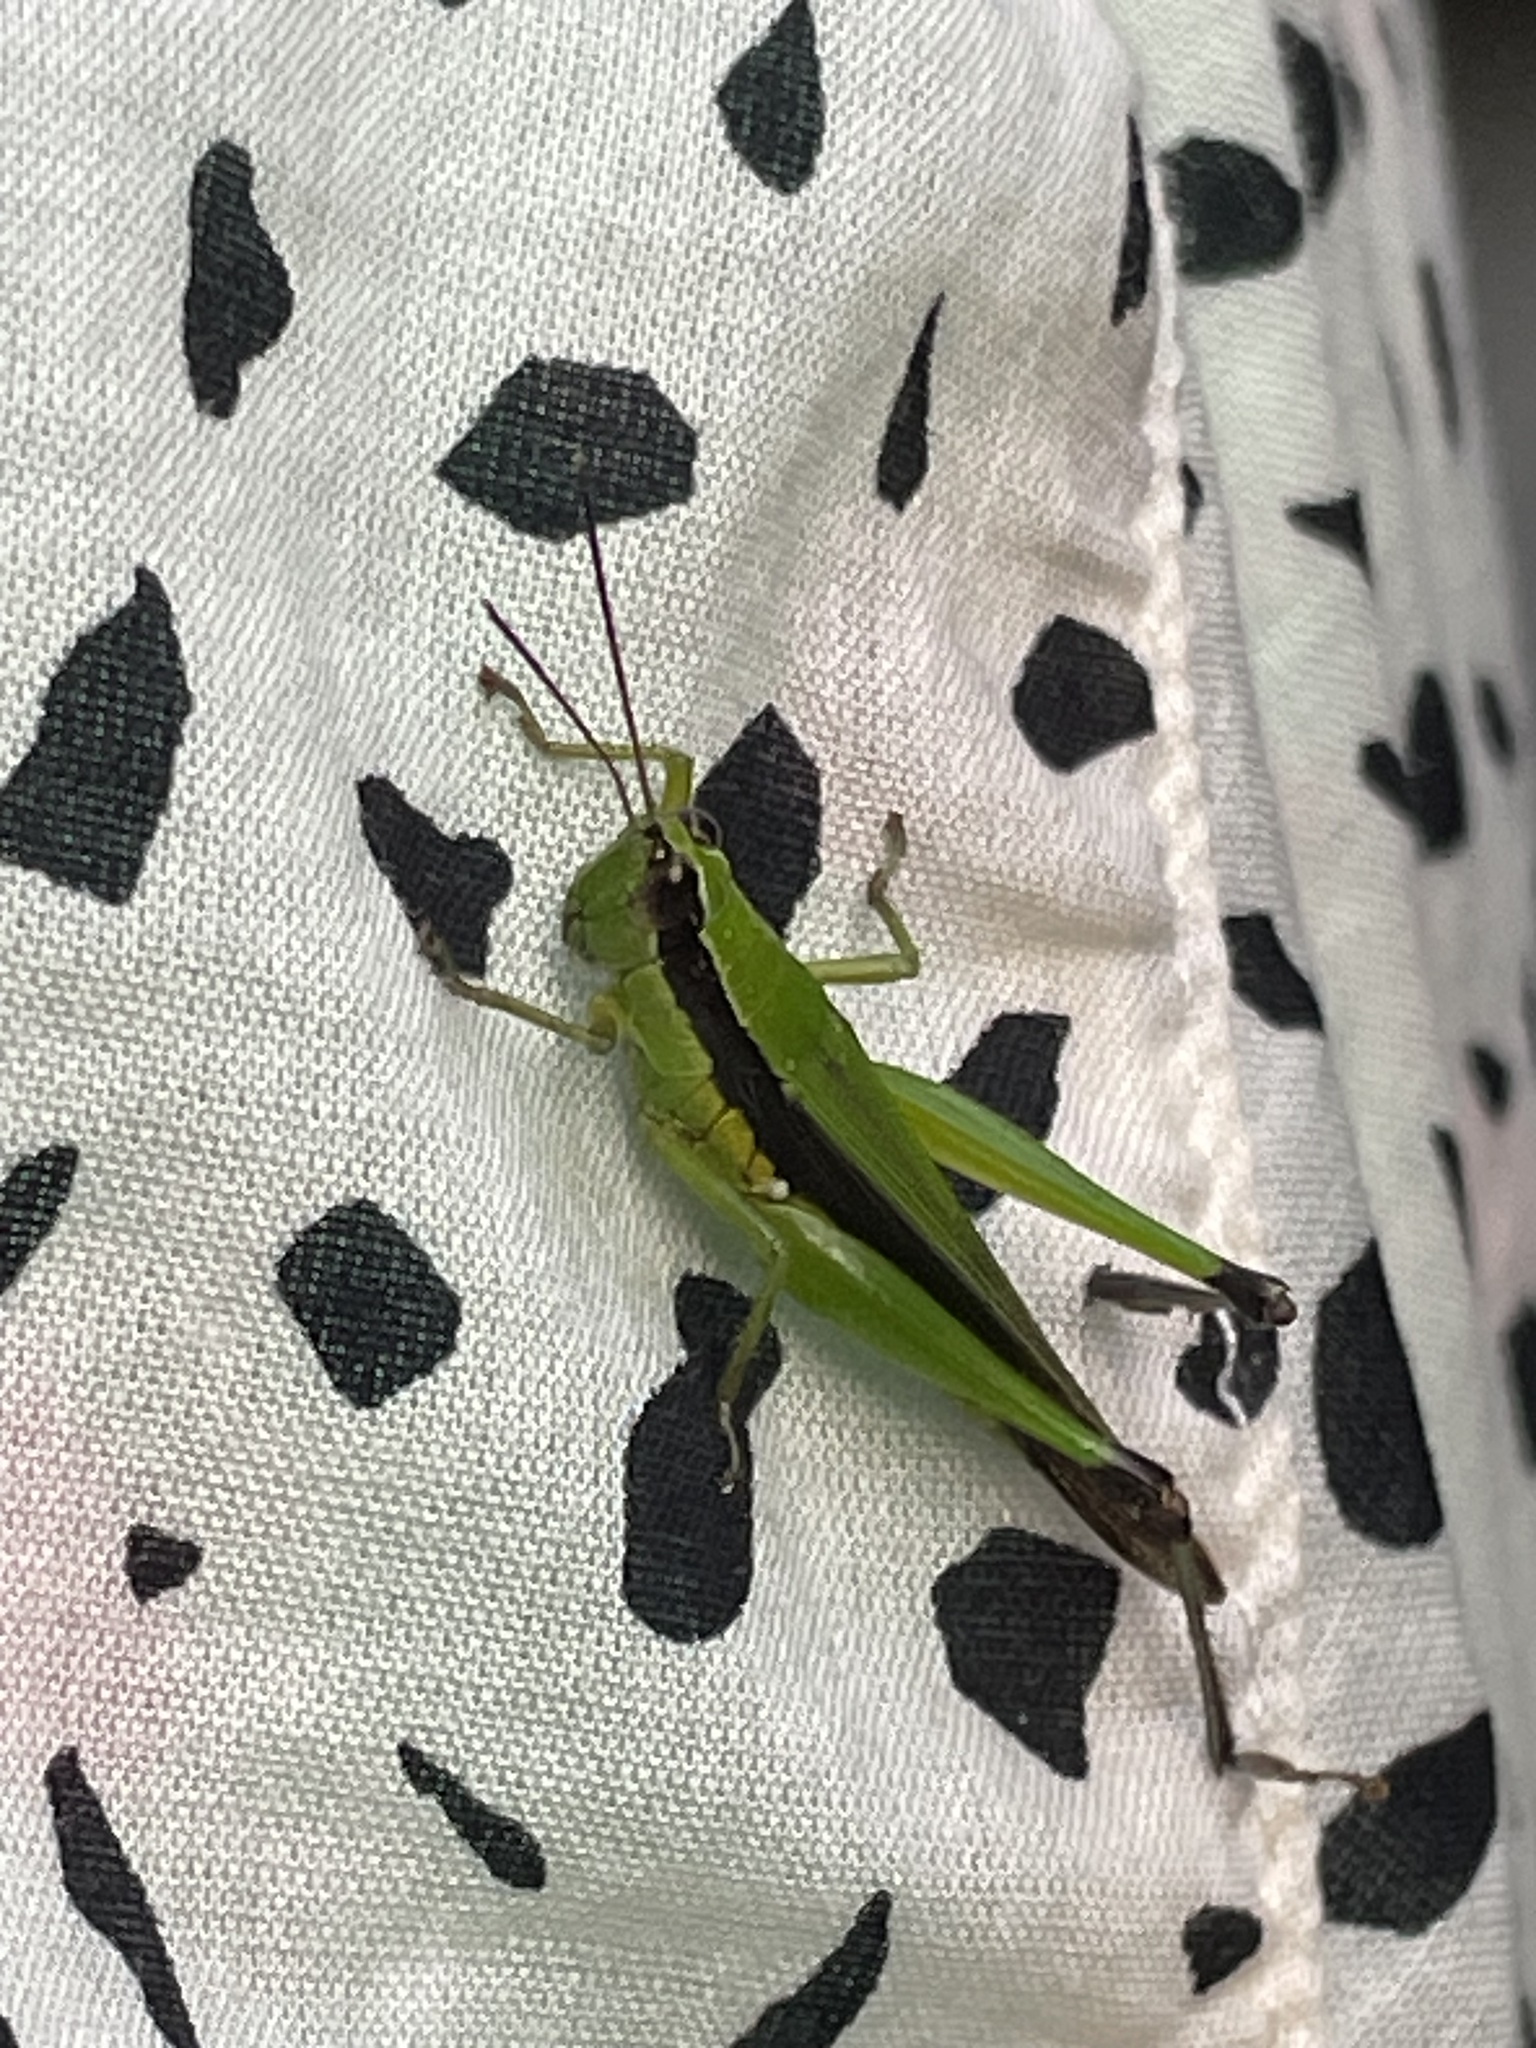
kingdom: Animalia
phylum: Arthropoda
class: Insecta
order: Orthoptera
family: Acrididae
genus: Gesonula
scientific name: Gesonula mundata
